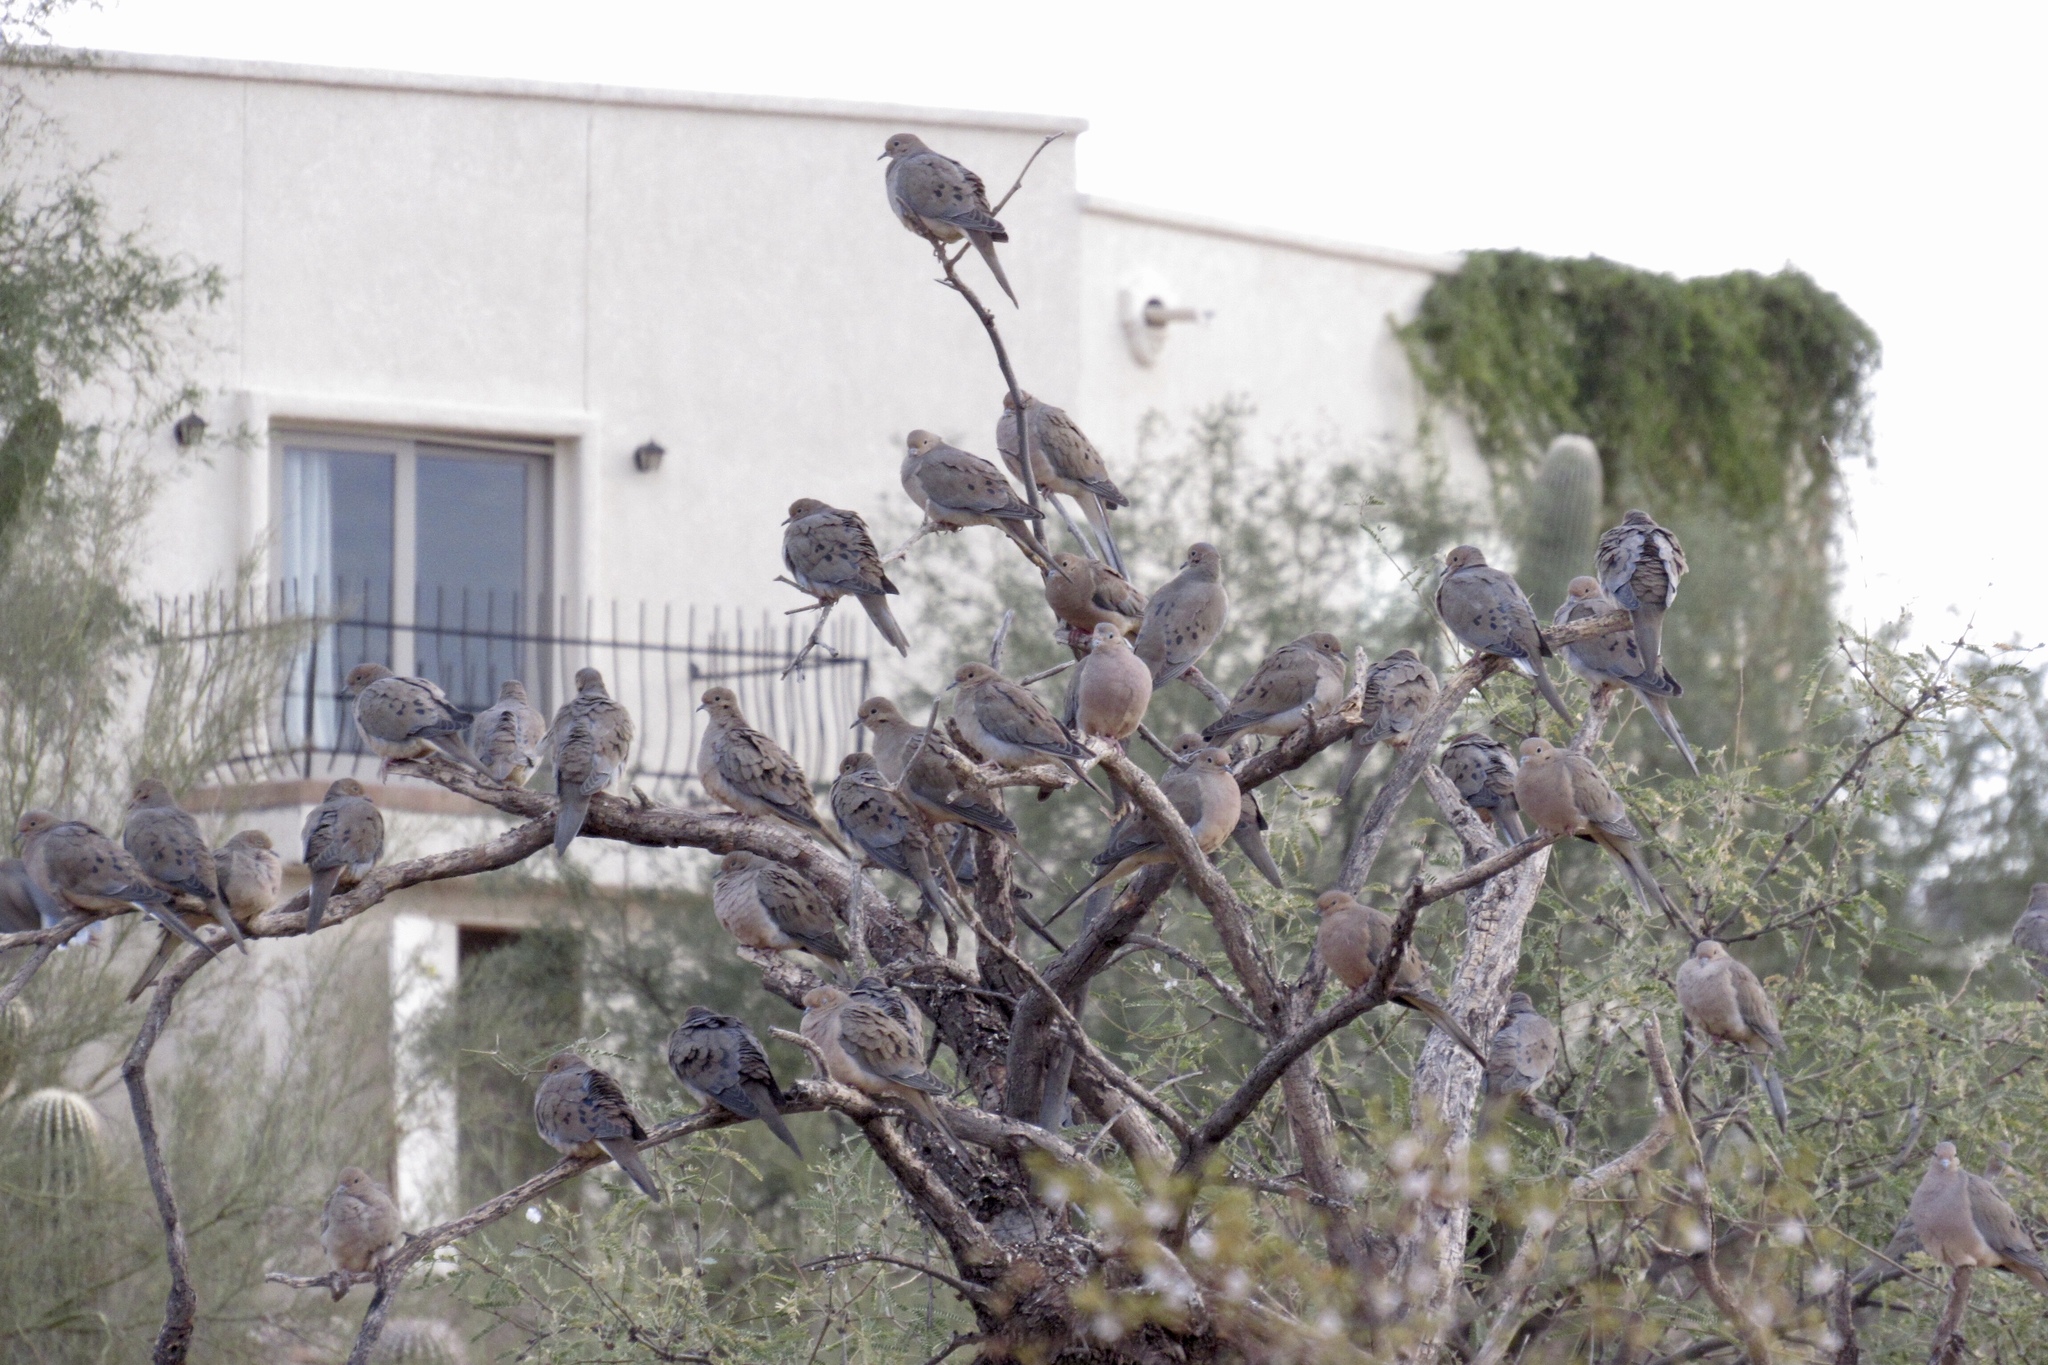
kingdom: Animalia
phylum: Chordata
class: Aves
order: Columbiformes
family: Columbidae
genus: Zenaida
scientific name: Zenaida macroura
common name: Mourning dove
